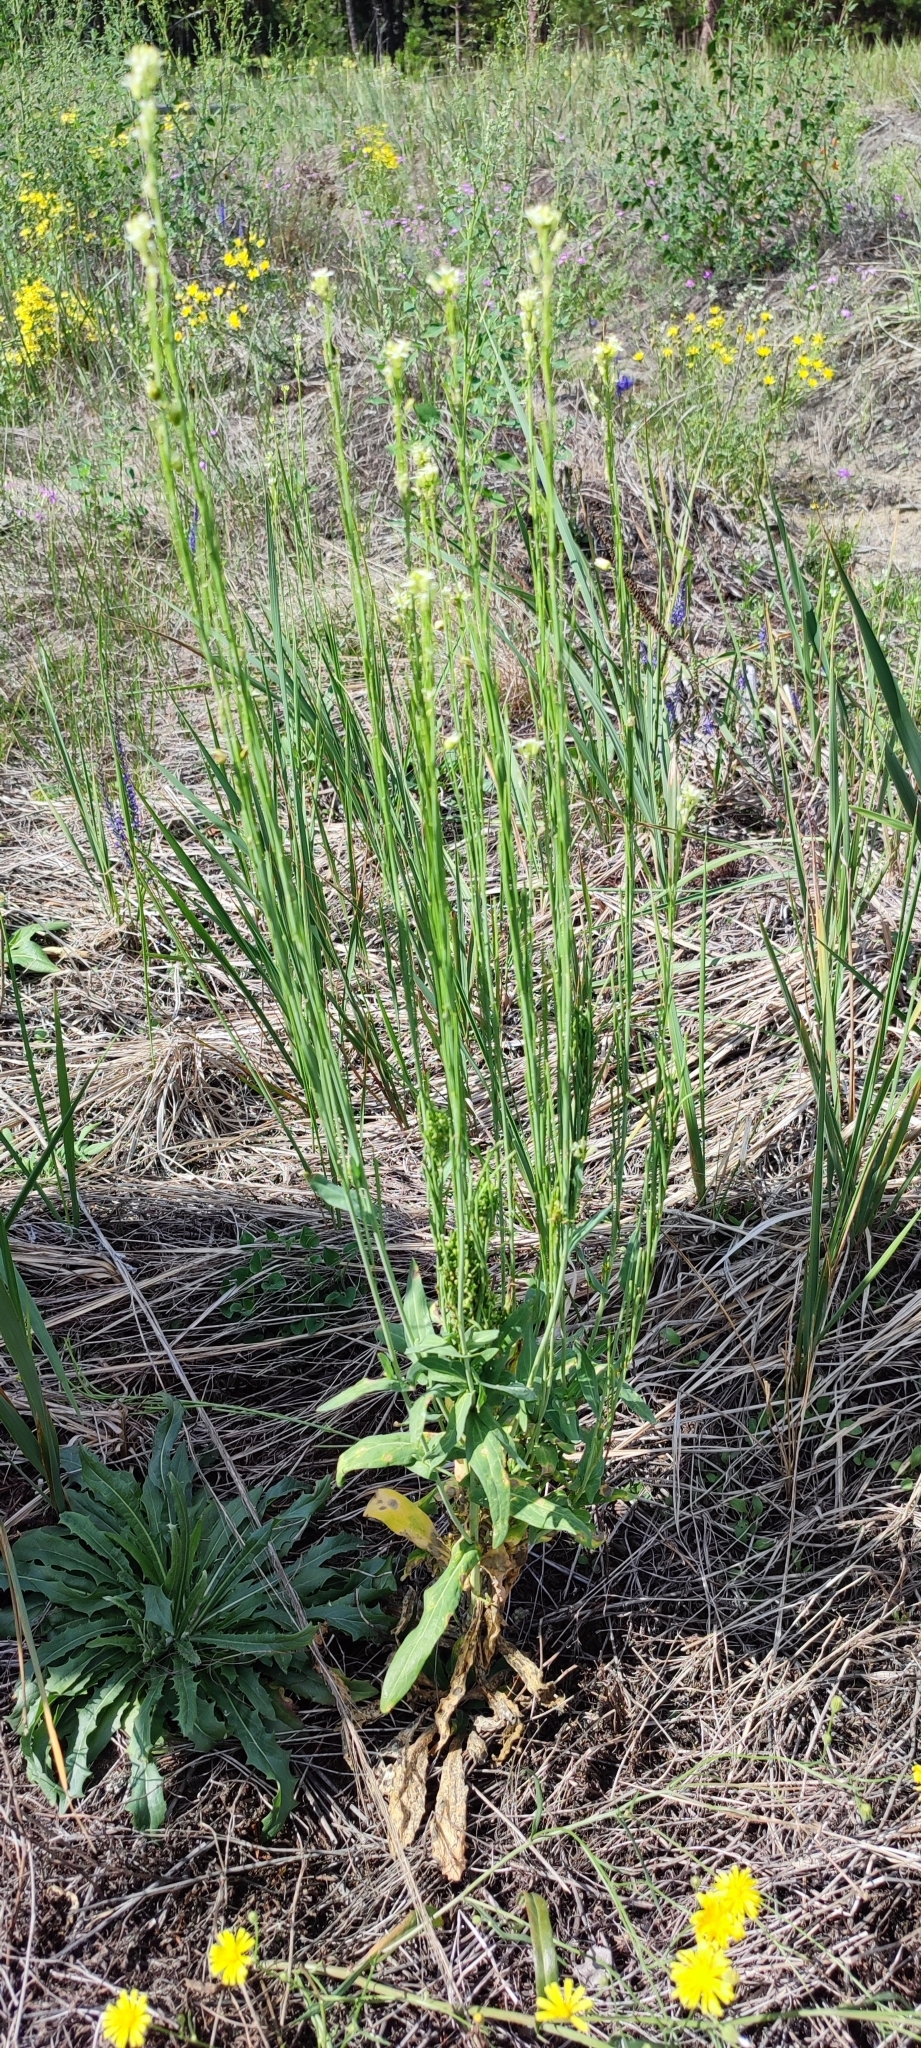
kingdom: Plantae
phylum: Tracheophyta
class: Magnoliopsida
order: Brassicales
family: Brassicaceae
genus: Turritis
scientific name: Turritis glabra
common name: Tower rockcress
